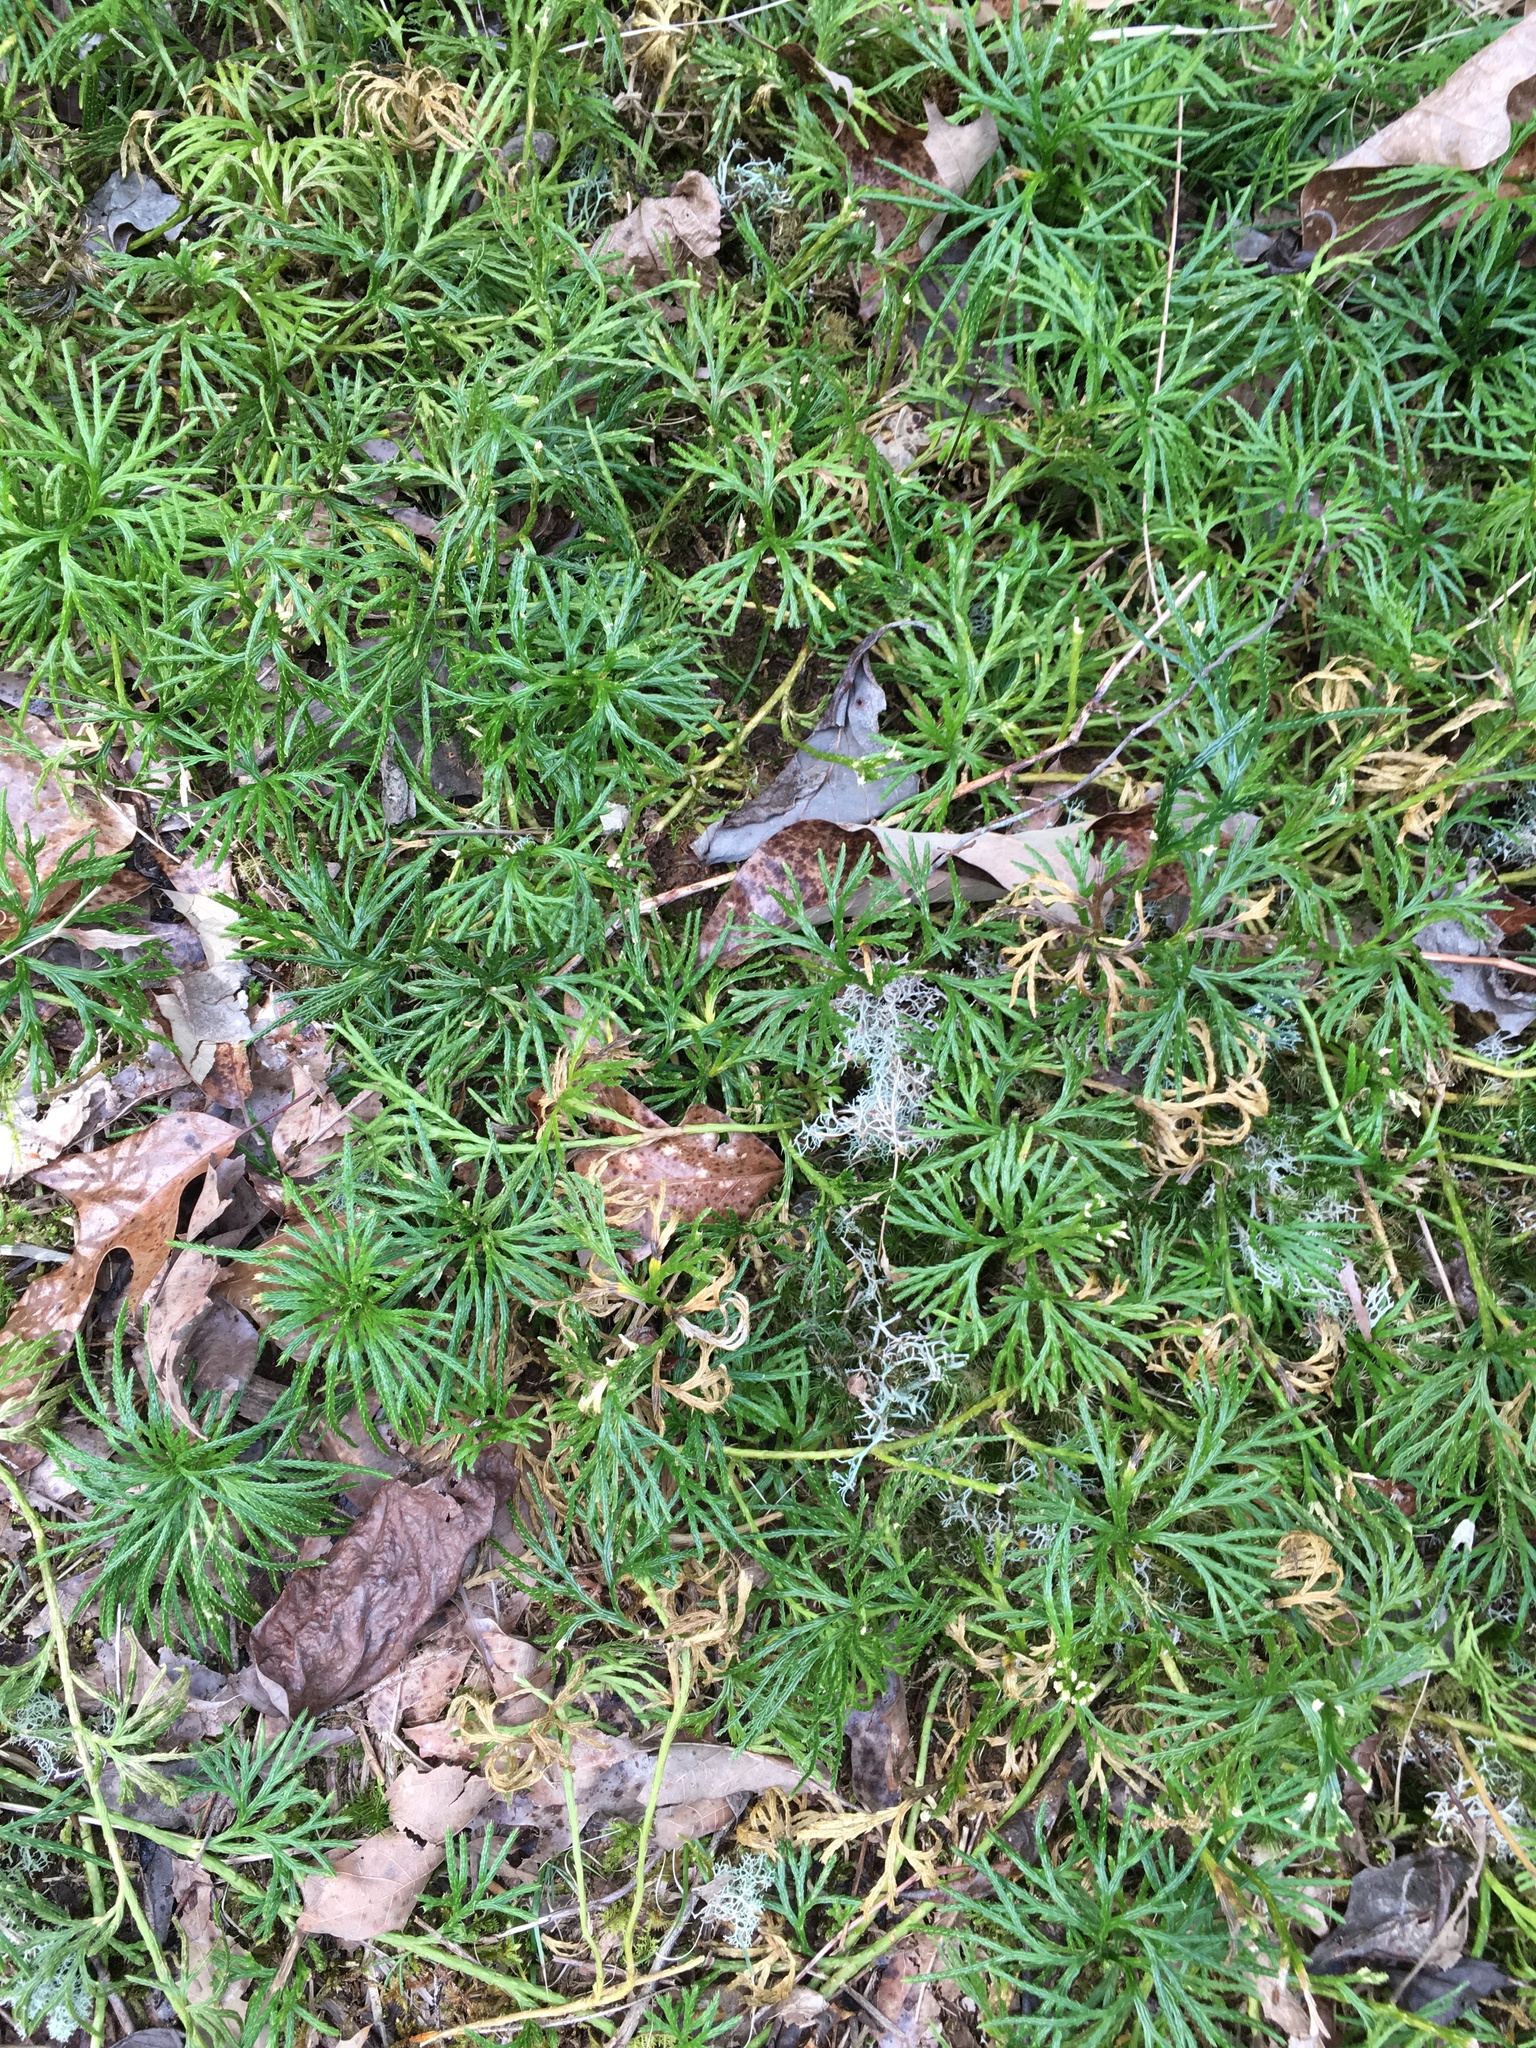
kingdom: Plantae
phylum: Tracheophyta
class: Lycopodiopsida
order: Lycopodiales
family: Lycopodiaceae
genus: Diphasiastrum
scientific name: Diphasiastrum digitatum
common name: Southern running-pine
